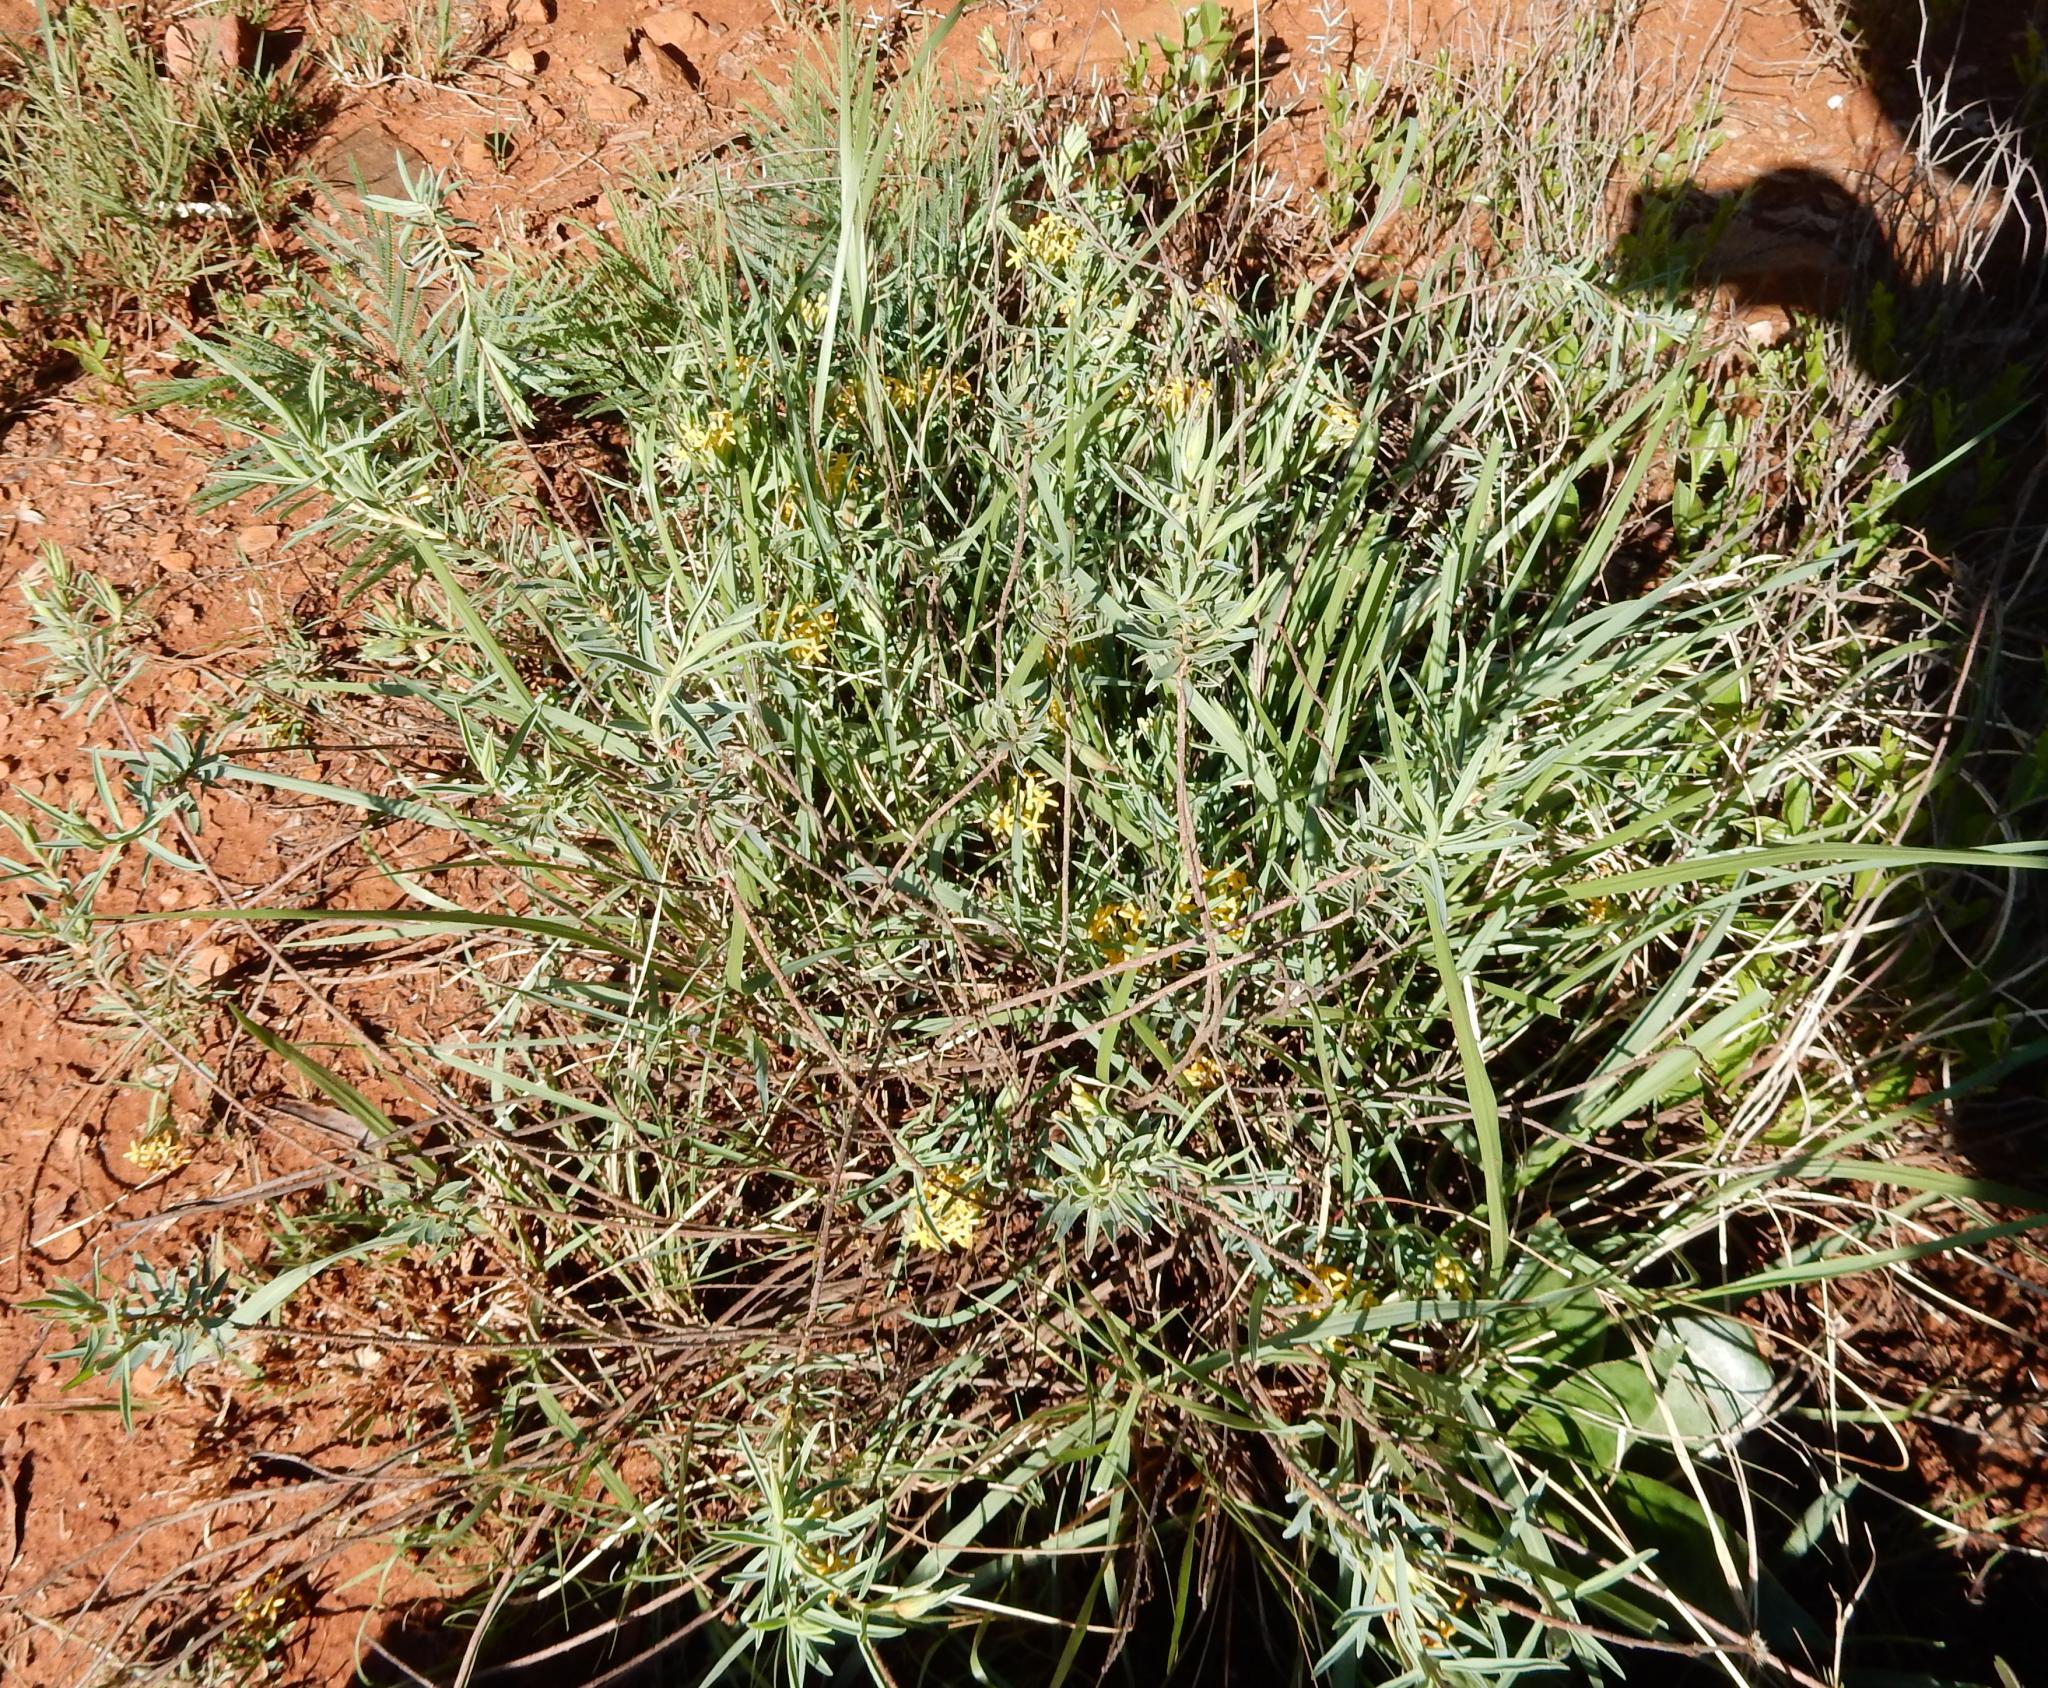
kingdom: Plantae
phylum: Tracheophyta
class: Magnoliopsida
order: Malvales
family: Thymelaeaceae
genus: Gnidia
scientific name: Gnidia capitata
